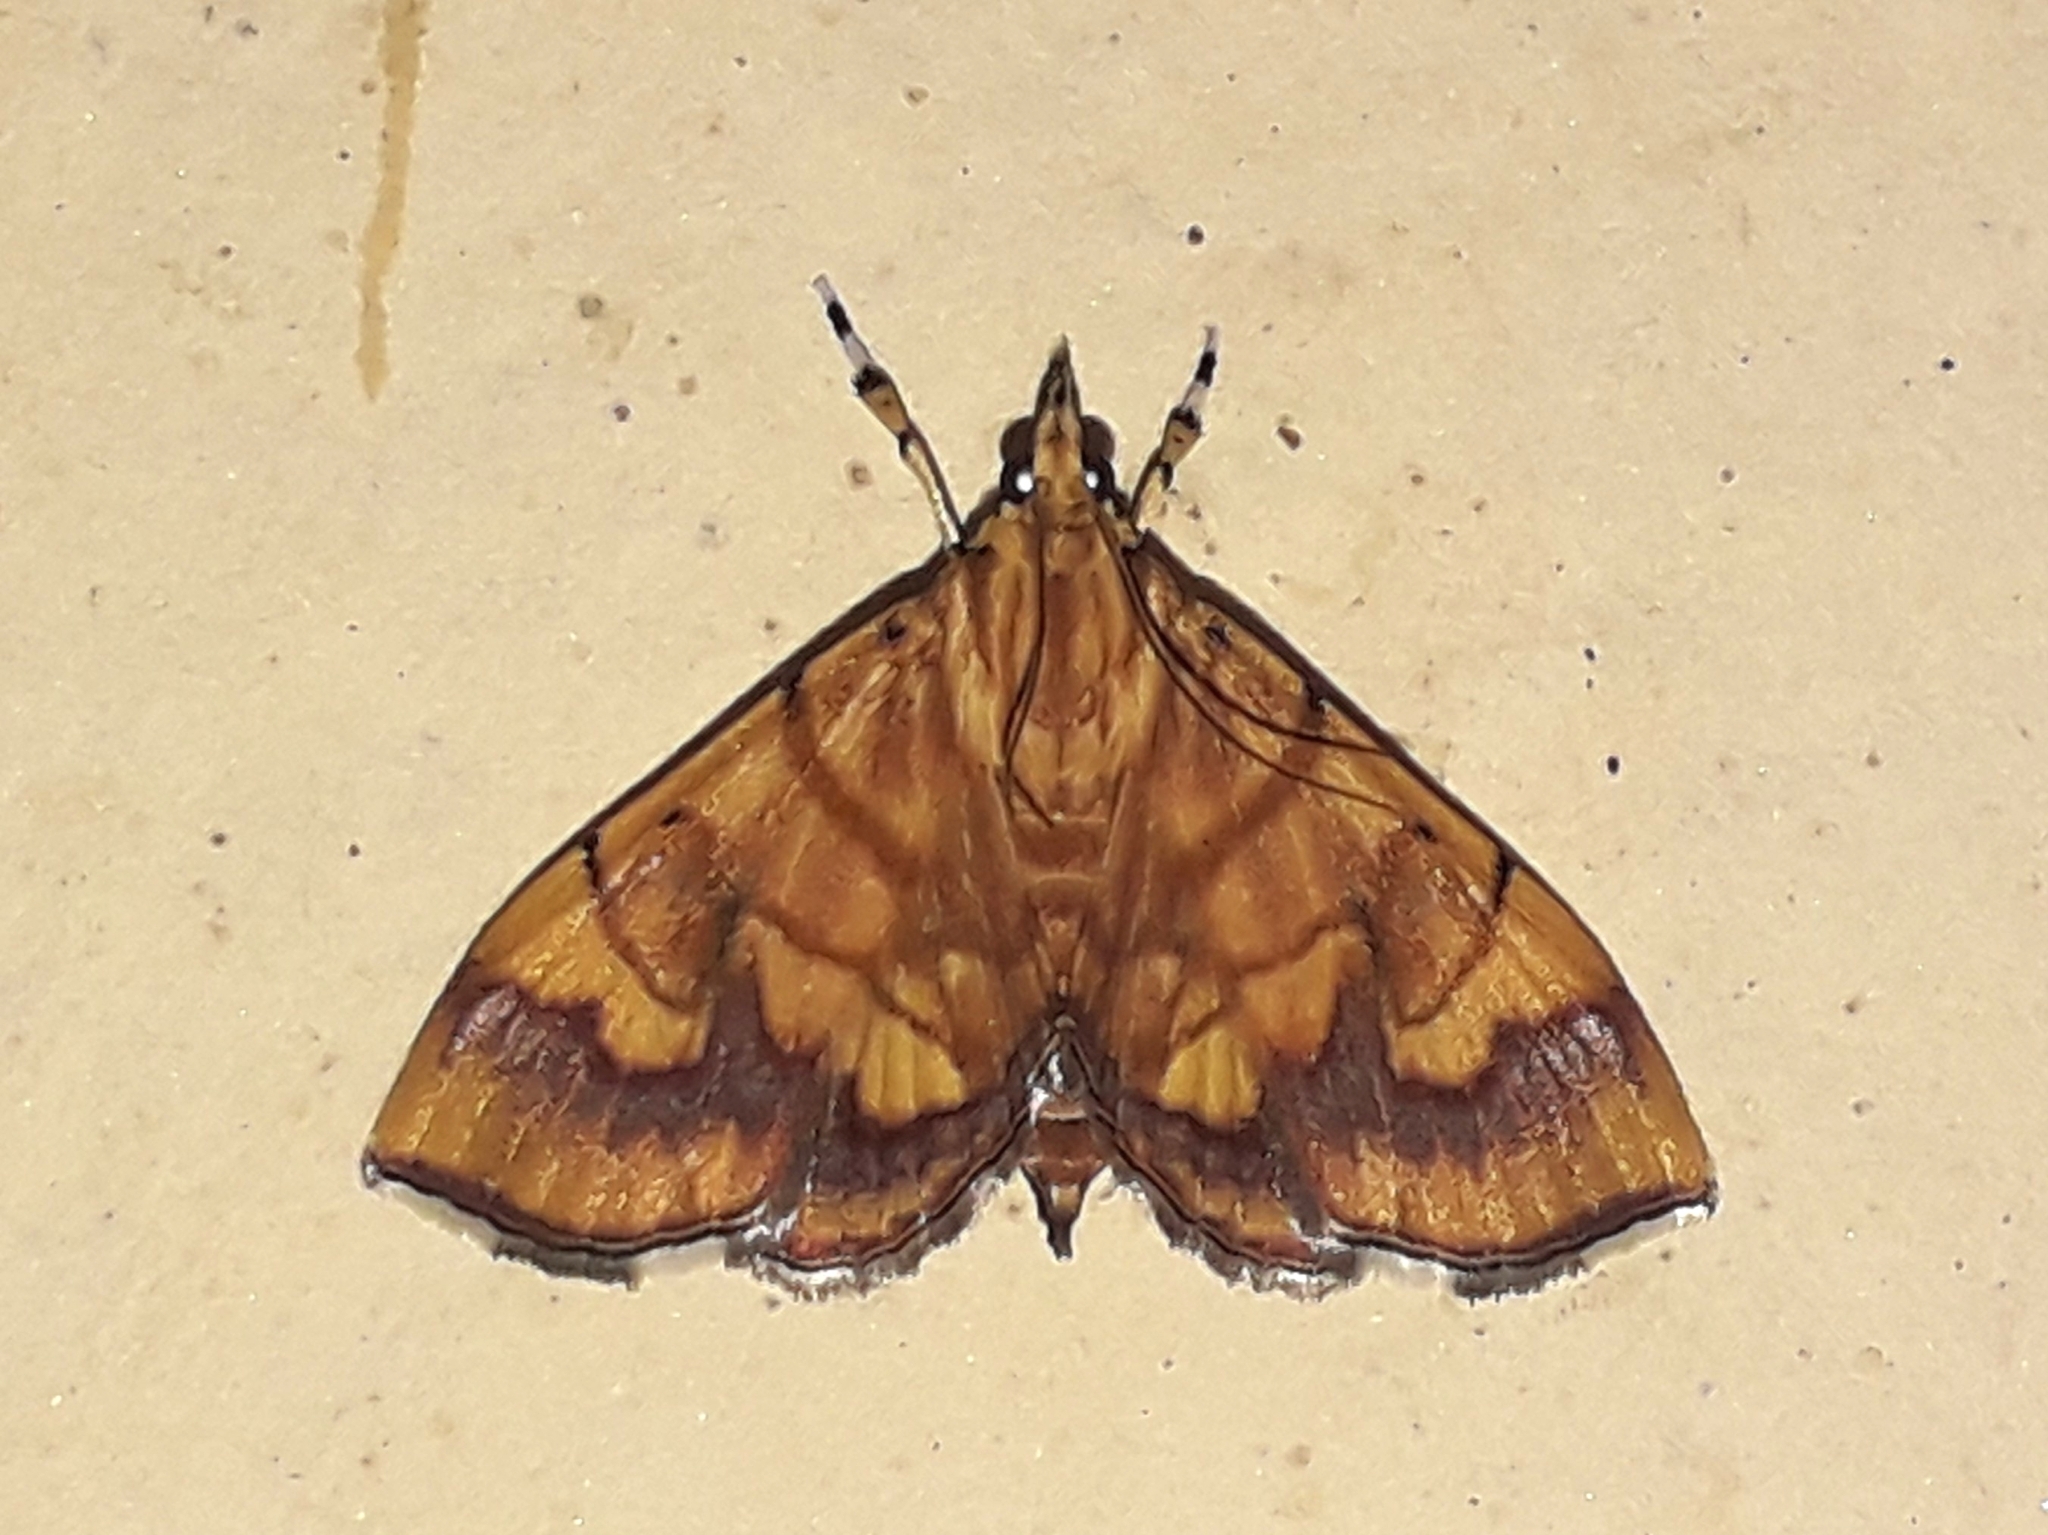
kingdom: Animalia
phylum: Arthropoda
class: Insecta
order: Lepidoptera
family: Crambidae
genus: Cryptosara
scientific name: Cryptosara caritalis
